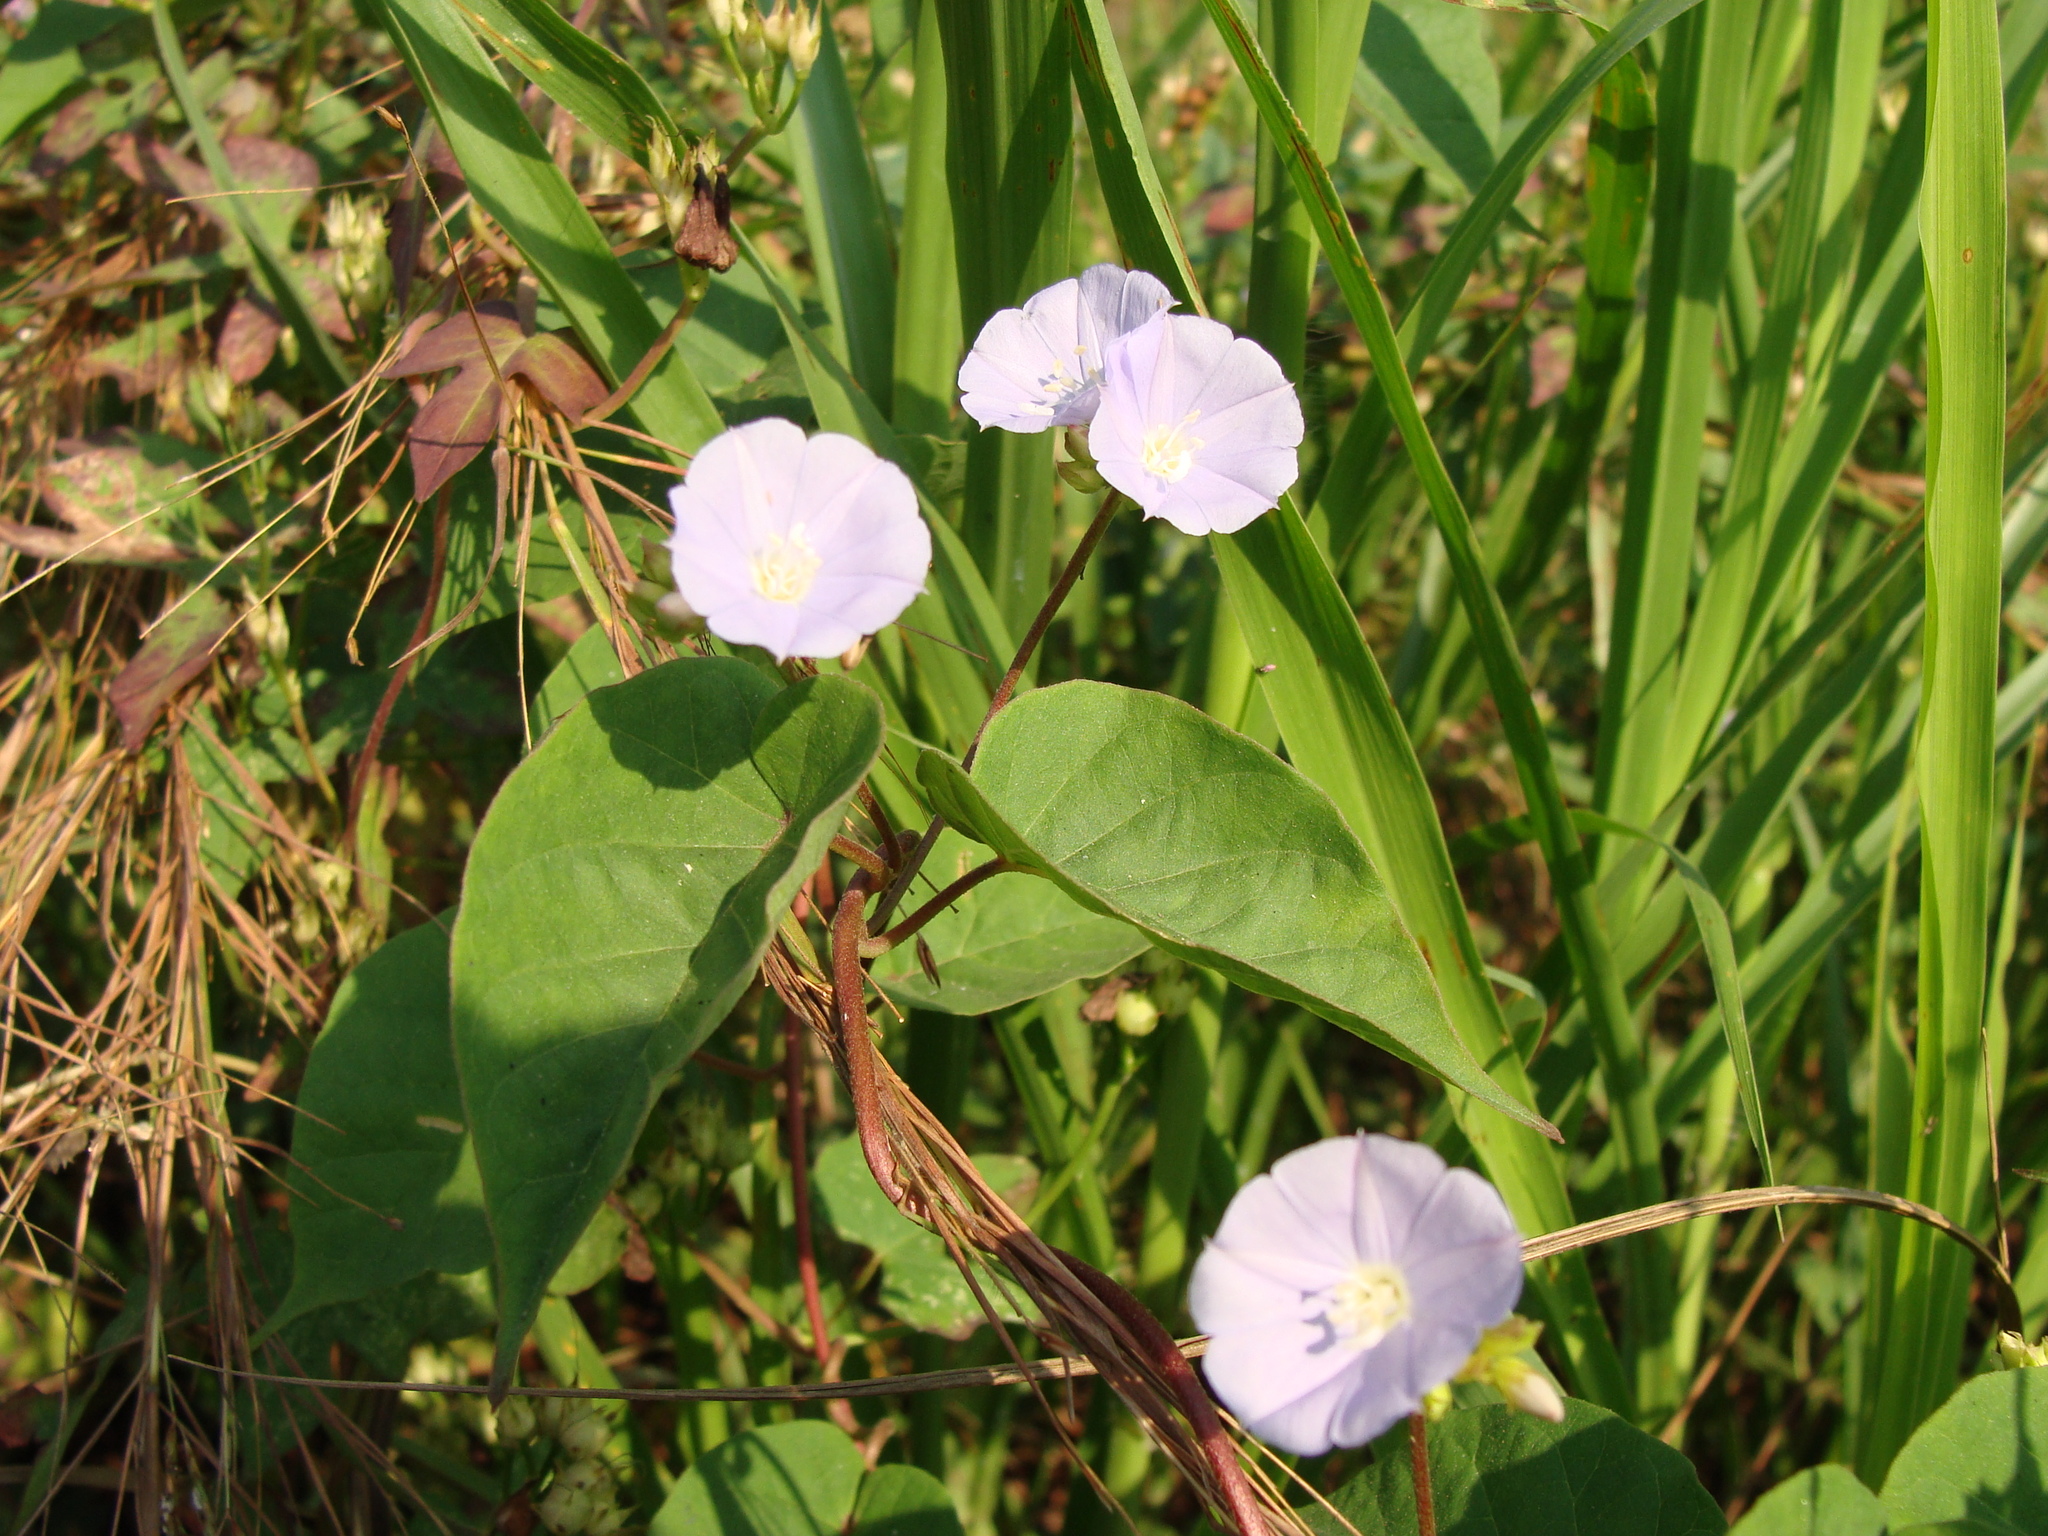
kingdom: Plantae
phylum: Tracheophyta
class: Magnoliopsida
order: Solanales
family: Convolvulaceae
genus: Jacquemontia
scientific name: Jacquemontia oaxacana
